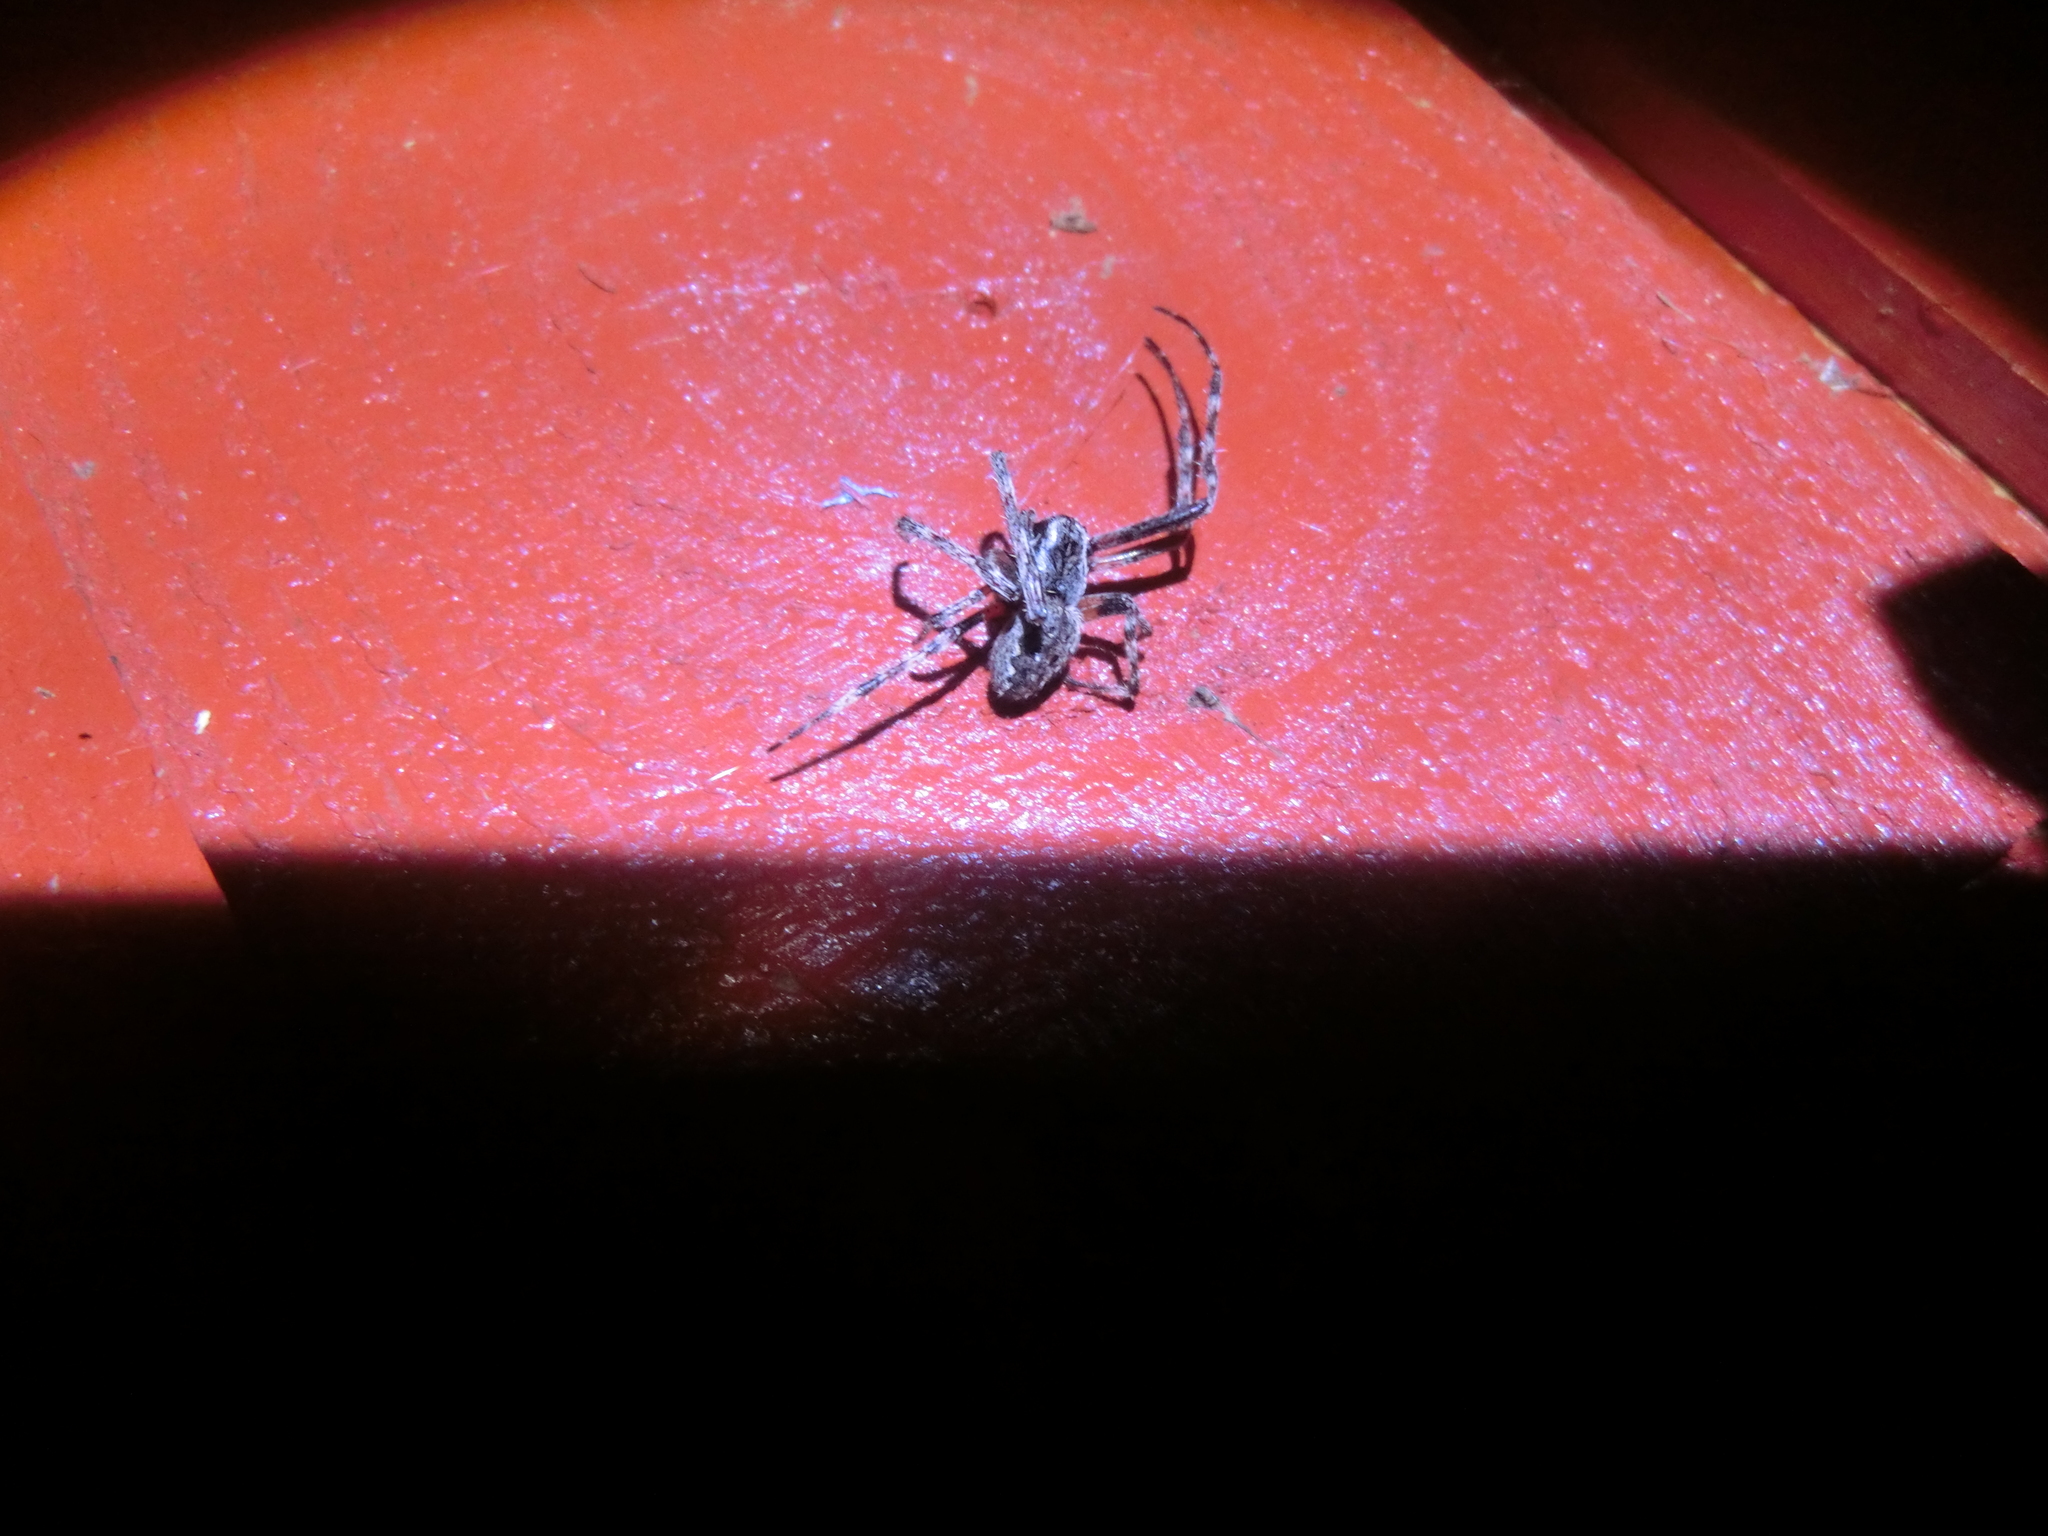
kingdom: Animalia
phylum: Arthropoda
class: Arachnida
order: Araneae
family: Araneidae
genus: Nuctenea
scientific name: Nuctenea umbratica
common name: Toad spider
